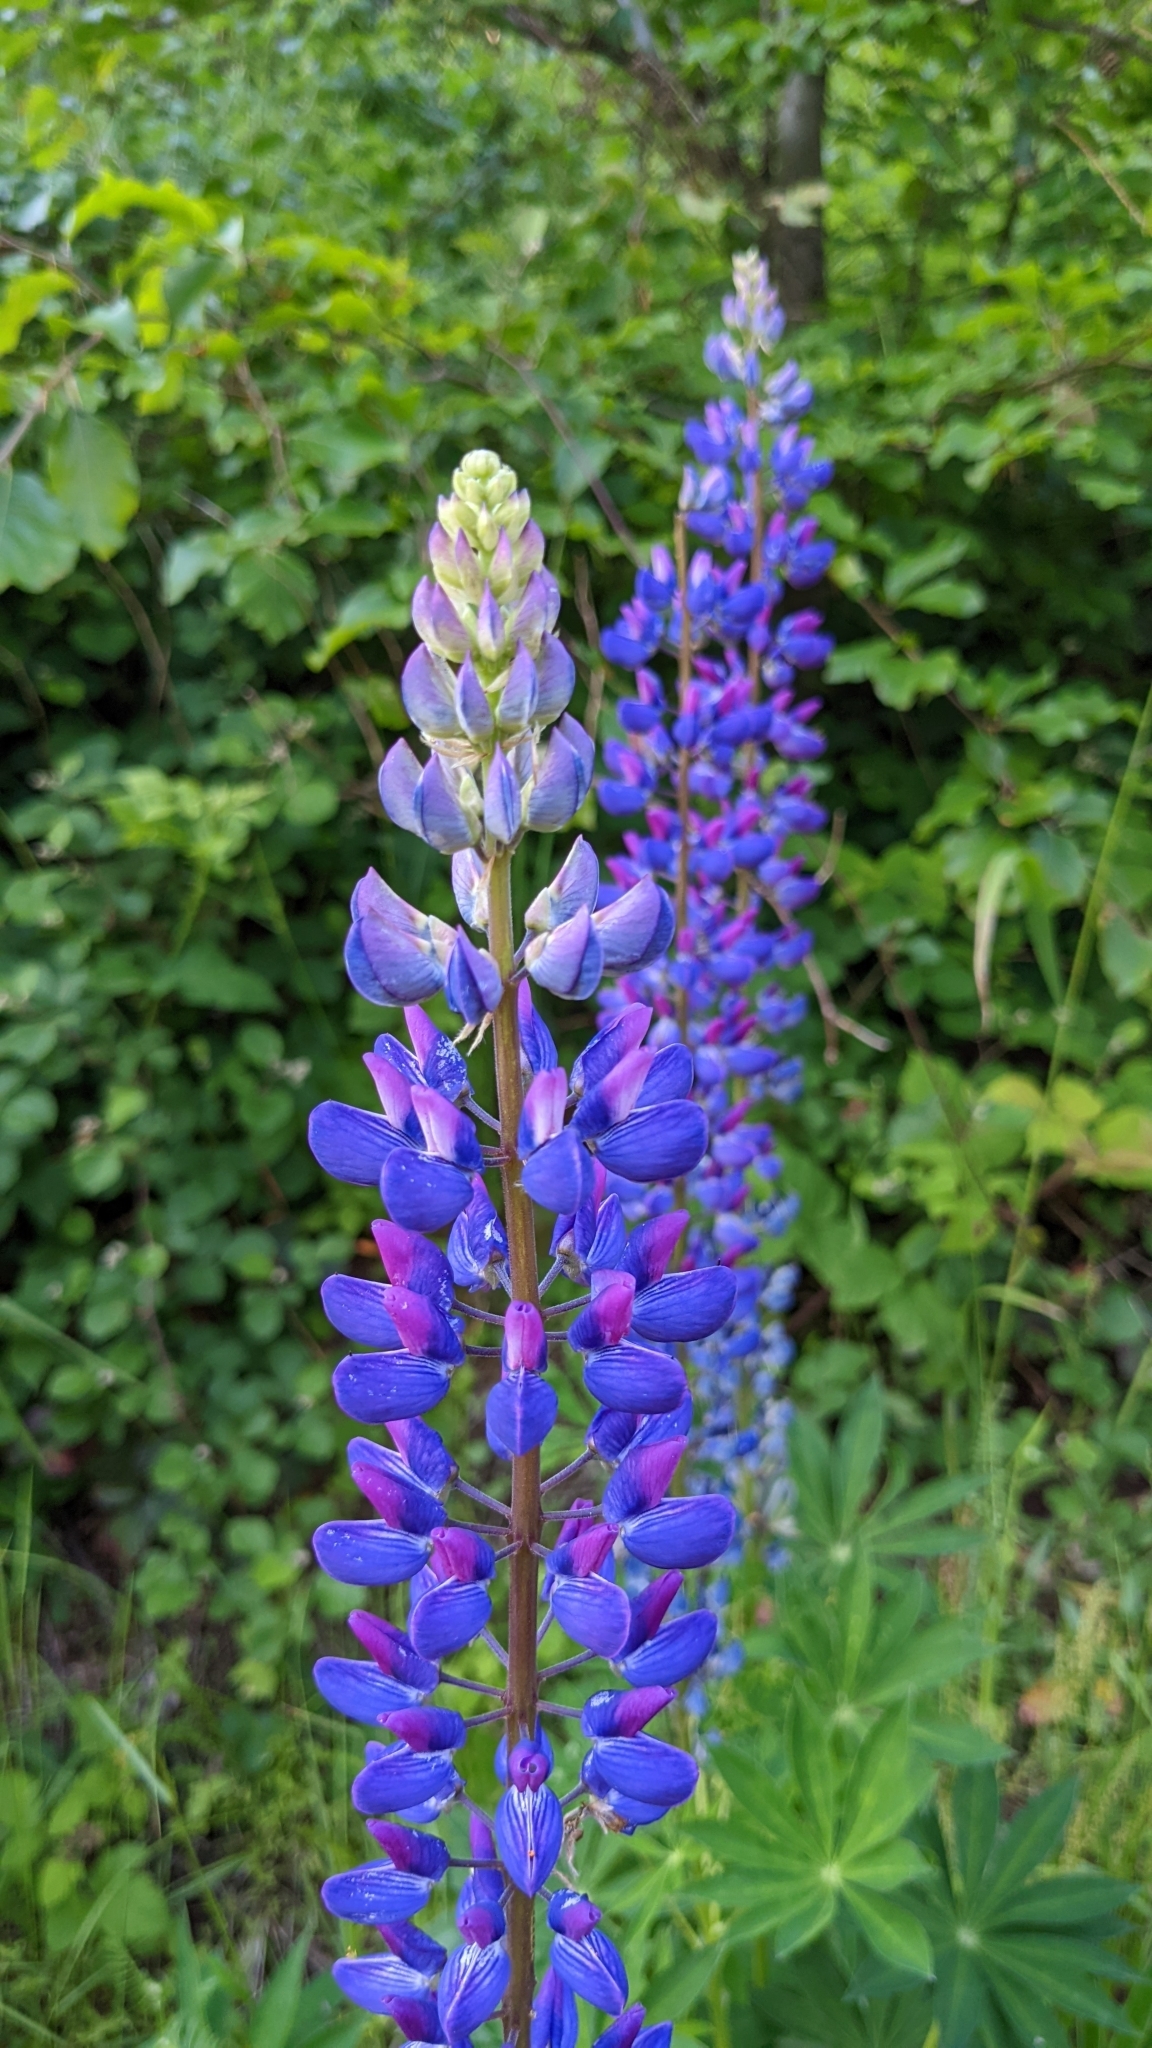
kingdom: Plantae
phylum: Tracheophyta
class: Magnoliopsida
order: Fabales
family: Fabaceae
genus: Lupinus
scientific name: Lupinus polyphyllus
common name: Garden lupin
